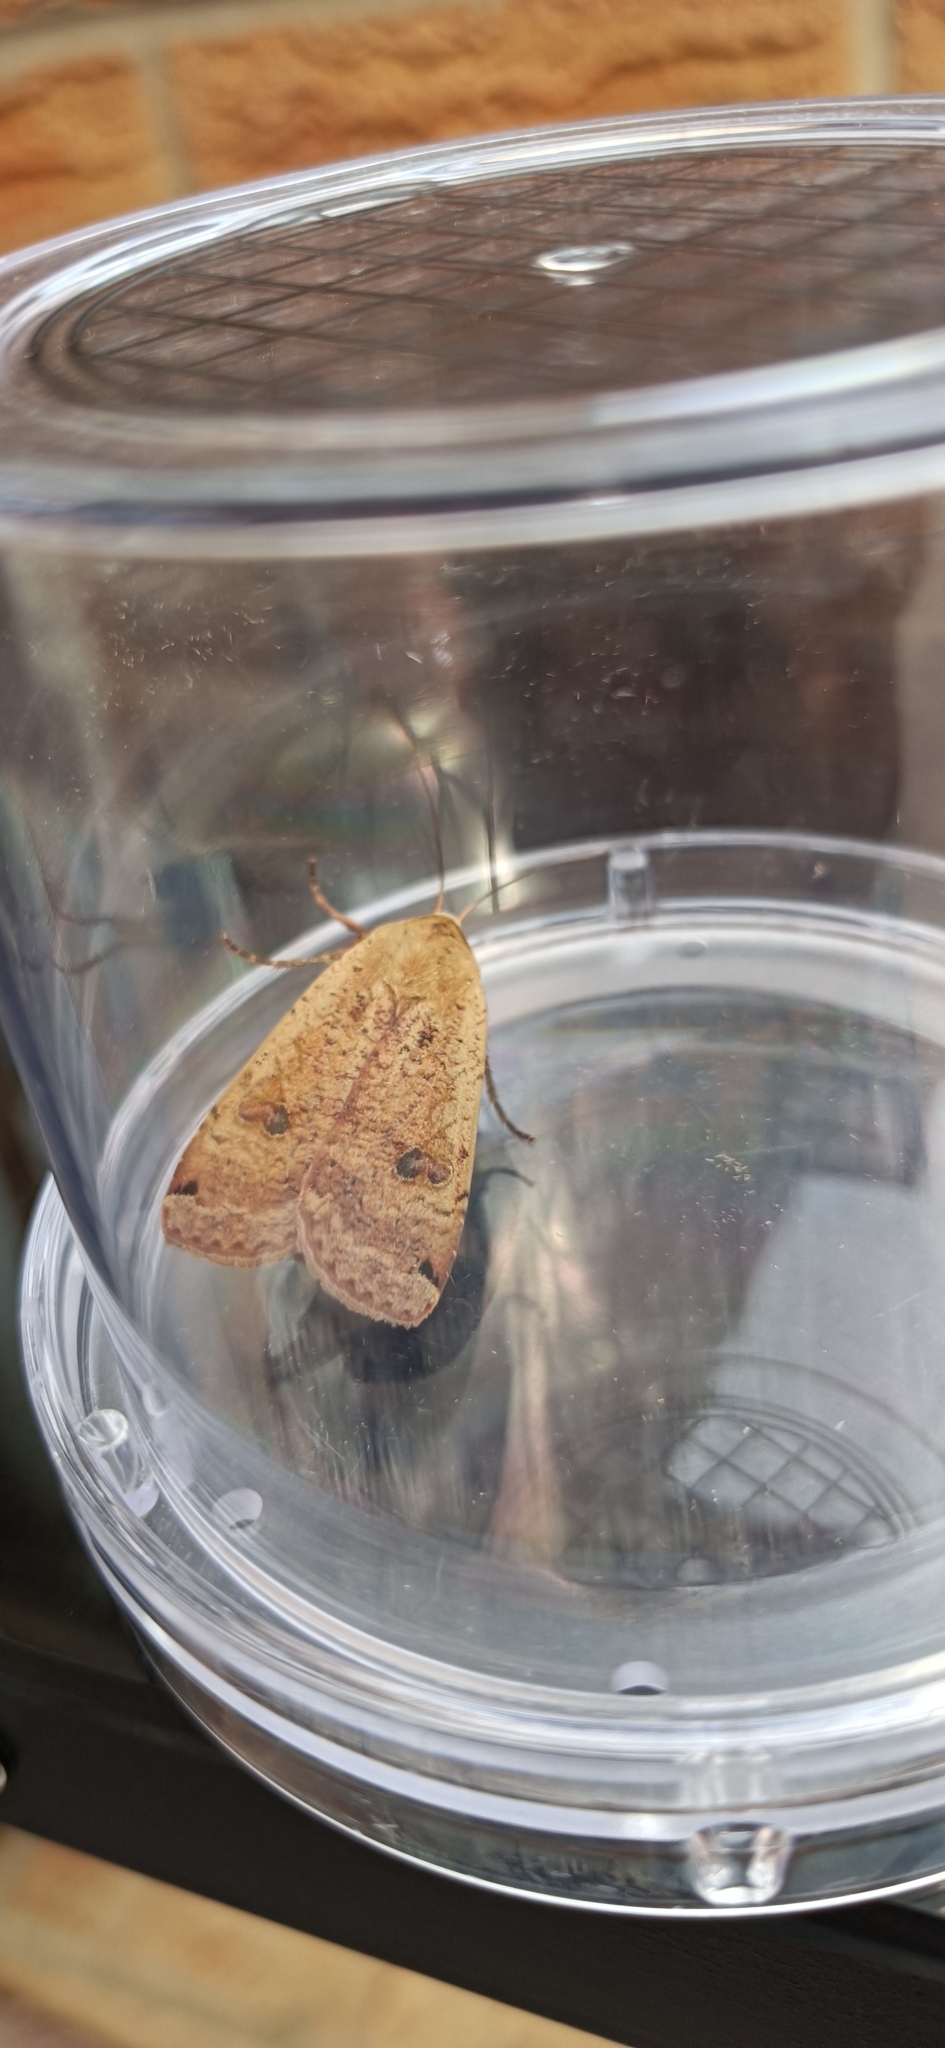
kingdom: Animalia
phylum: Arthropoda
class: Insecta
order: Lepidoptera
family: Noctuidae
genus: Noctua
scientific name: Noctua pronuba
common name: Large yellow underwing
